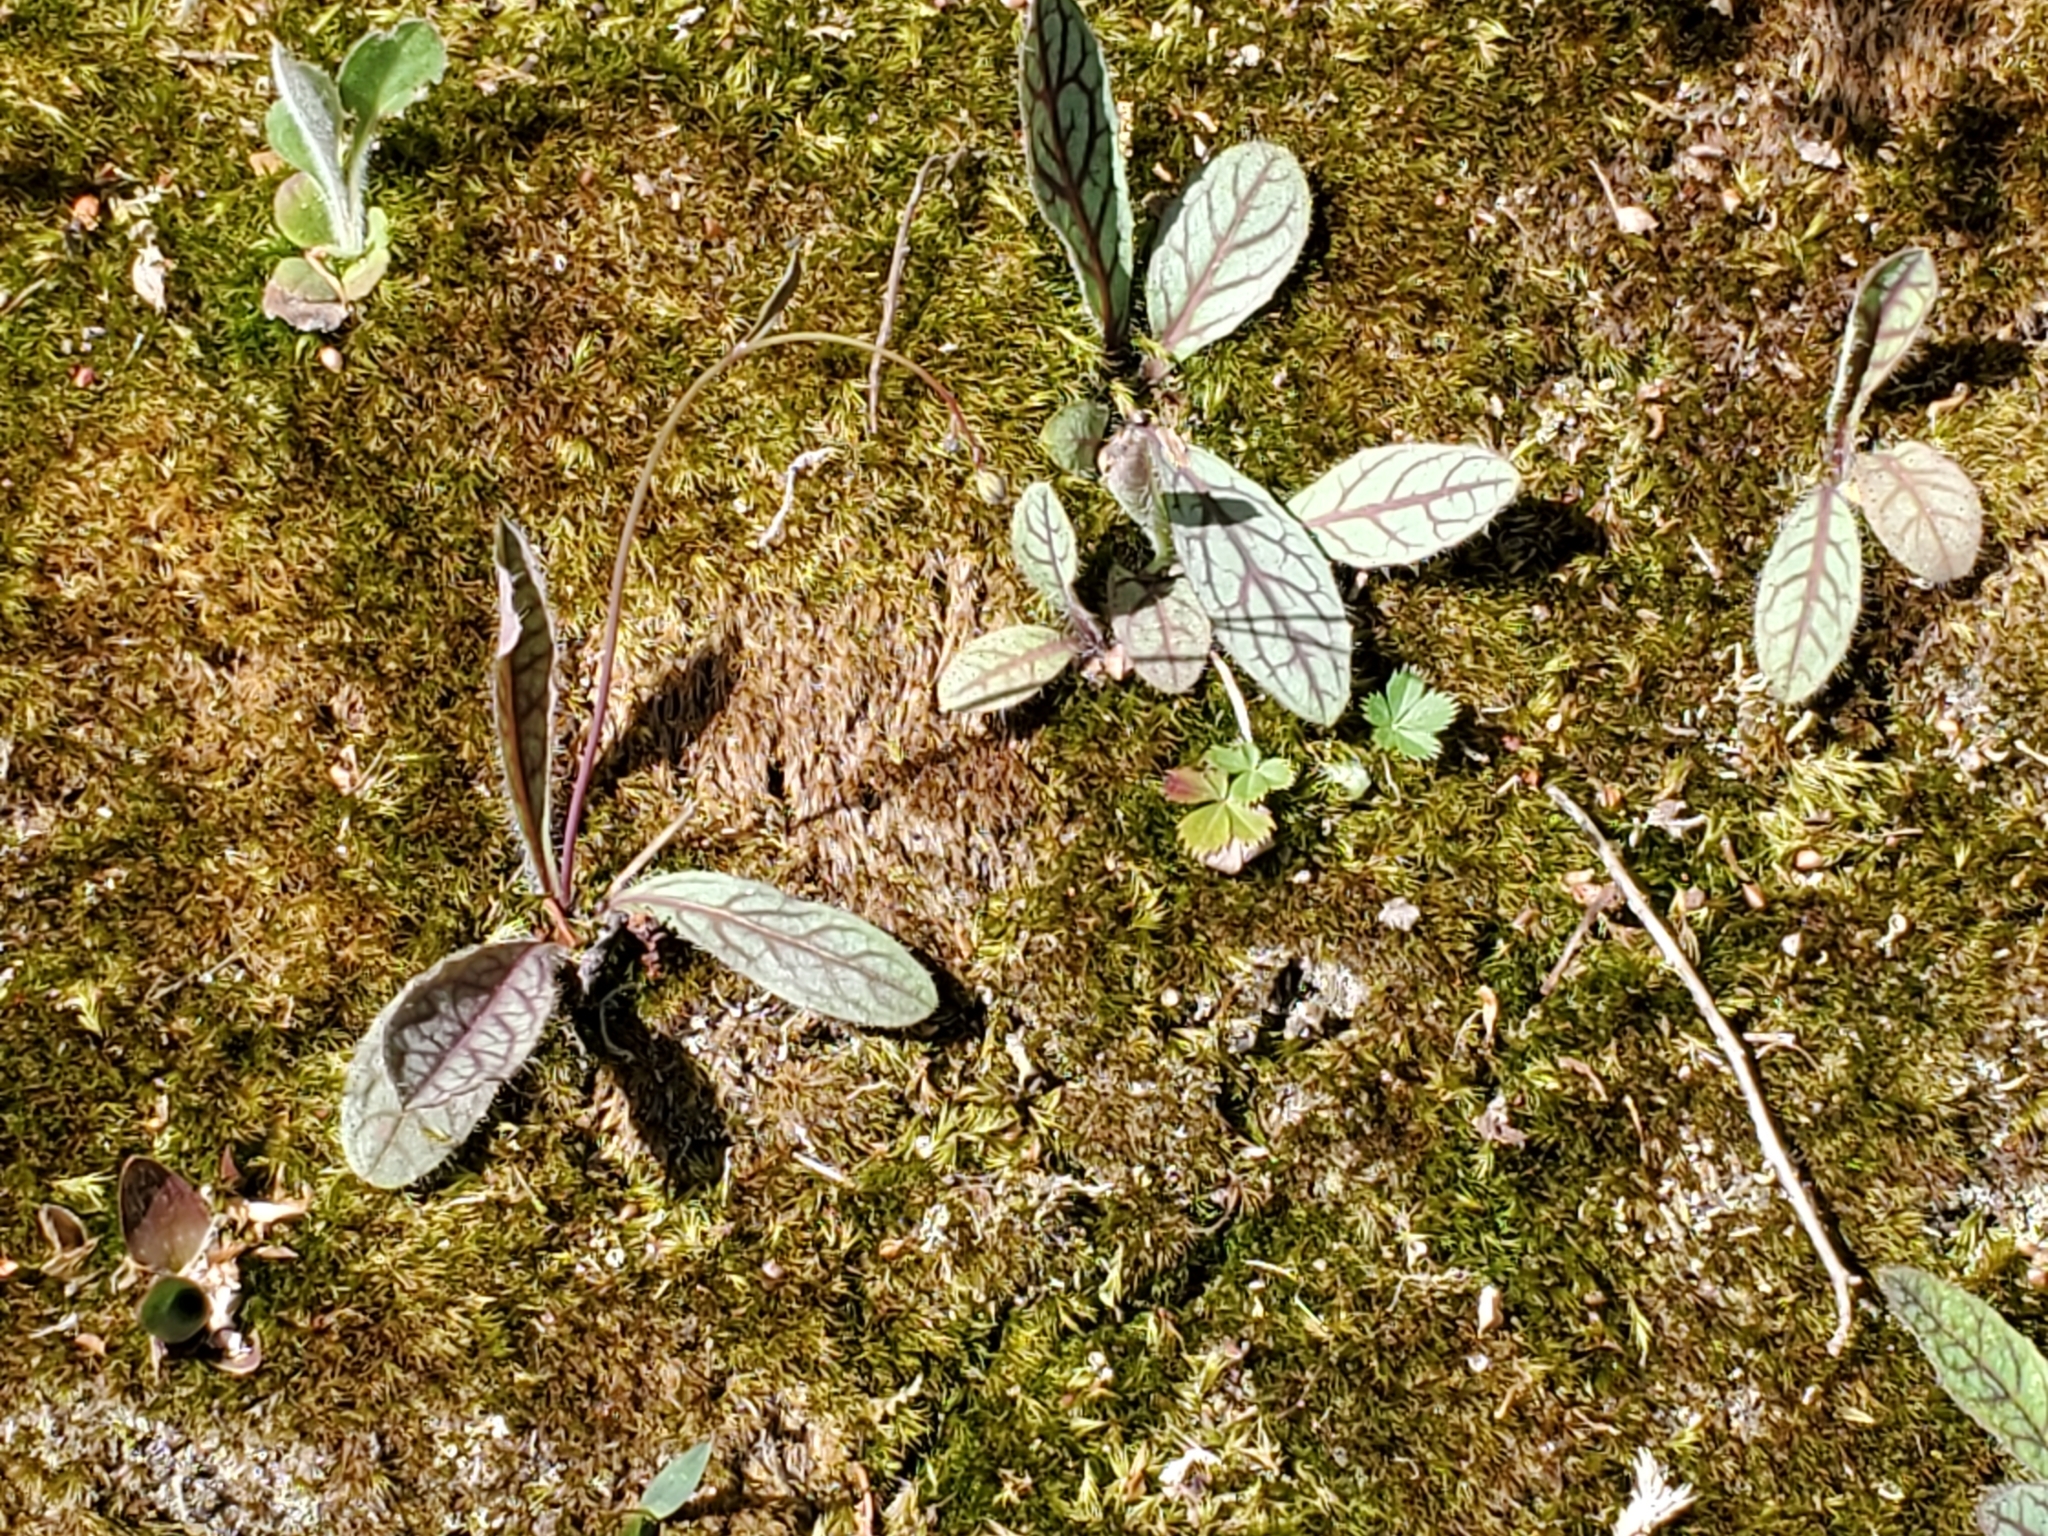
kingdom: Plantae
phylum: Tracheophyta
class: Magnoliopsida
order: Asterales
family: Asteraceae
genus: Hieracium
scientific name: Hieracium venosum
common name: Rattlesnake hawkweed
